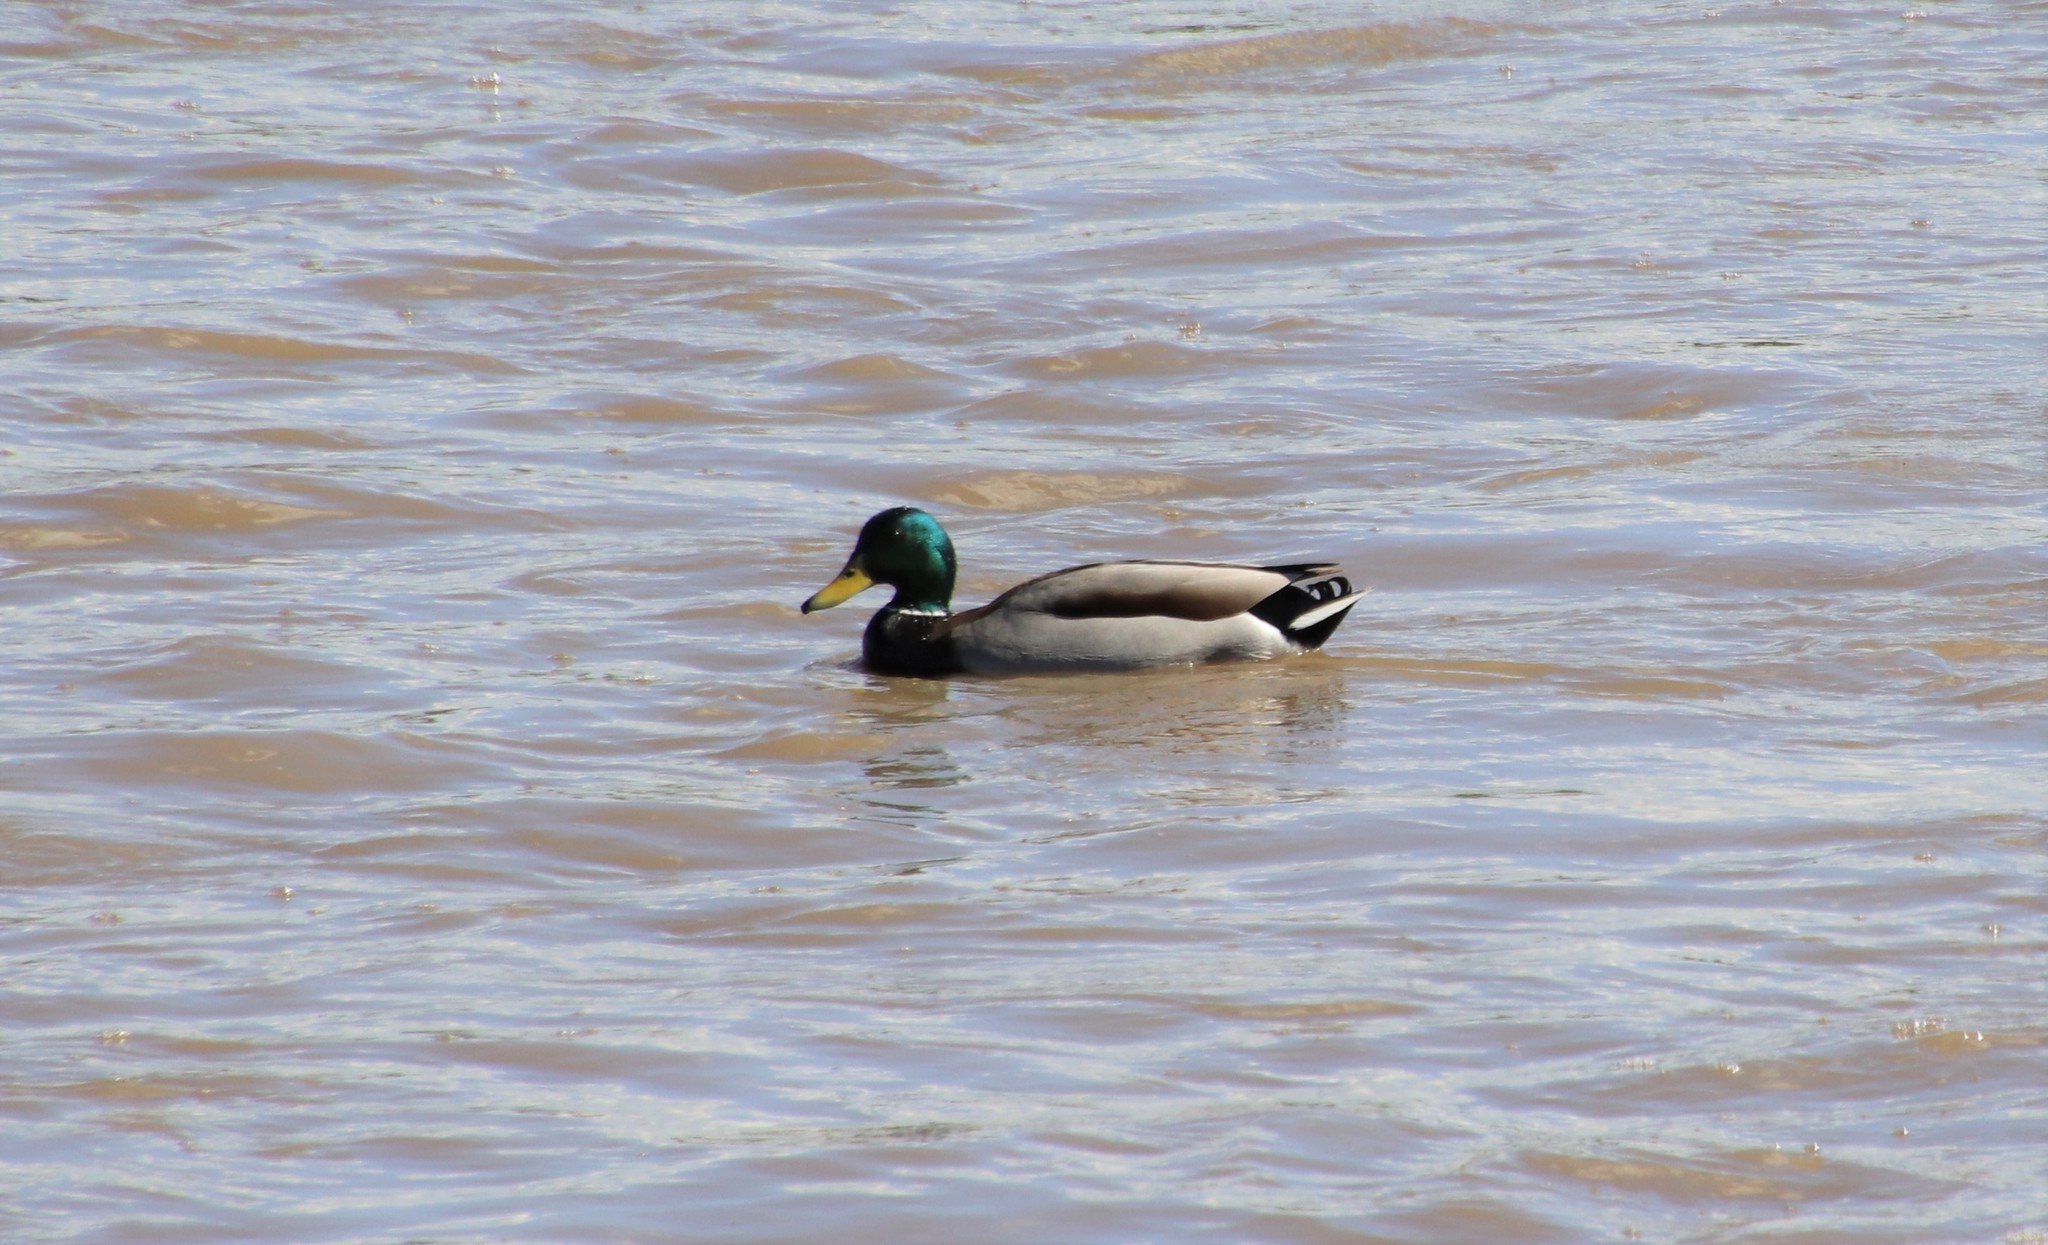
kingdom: Animalia
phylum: Chordata
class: Aves
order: Anseriformes
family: Anatidae
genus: Anas
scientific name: Anas platyrhynchos
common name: Mallard
